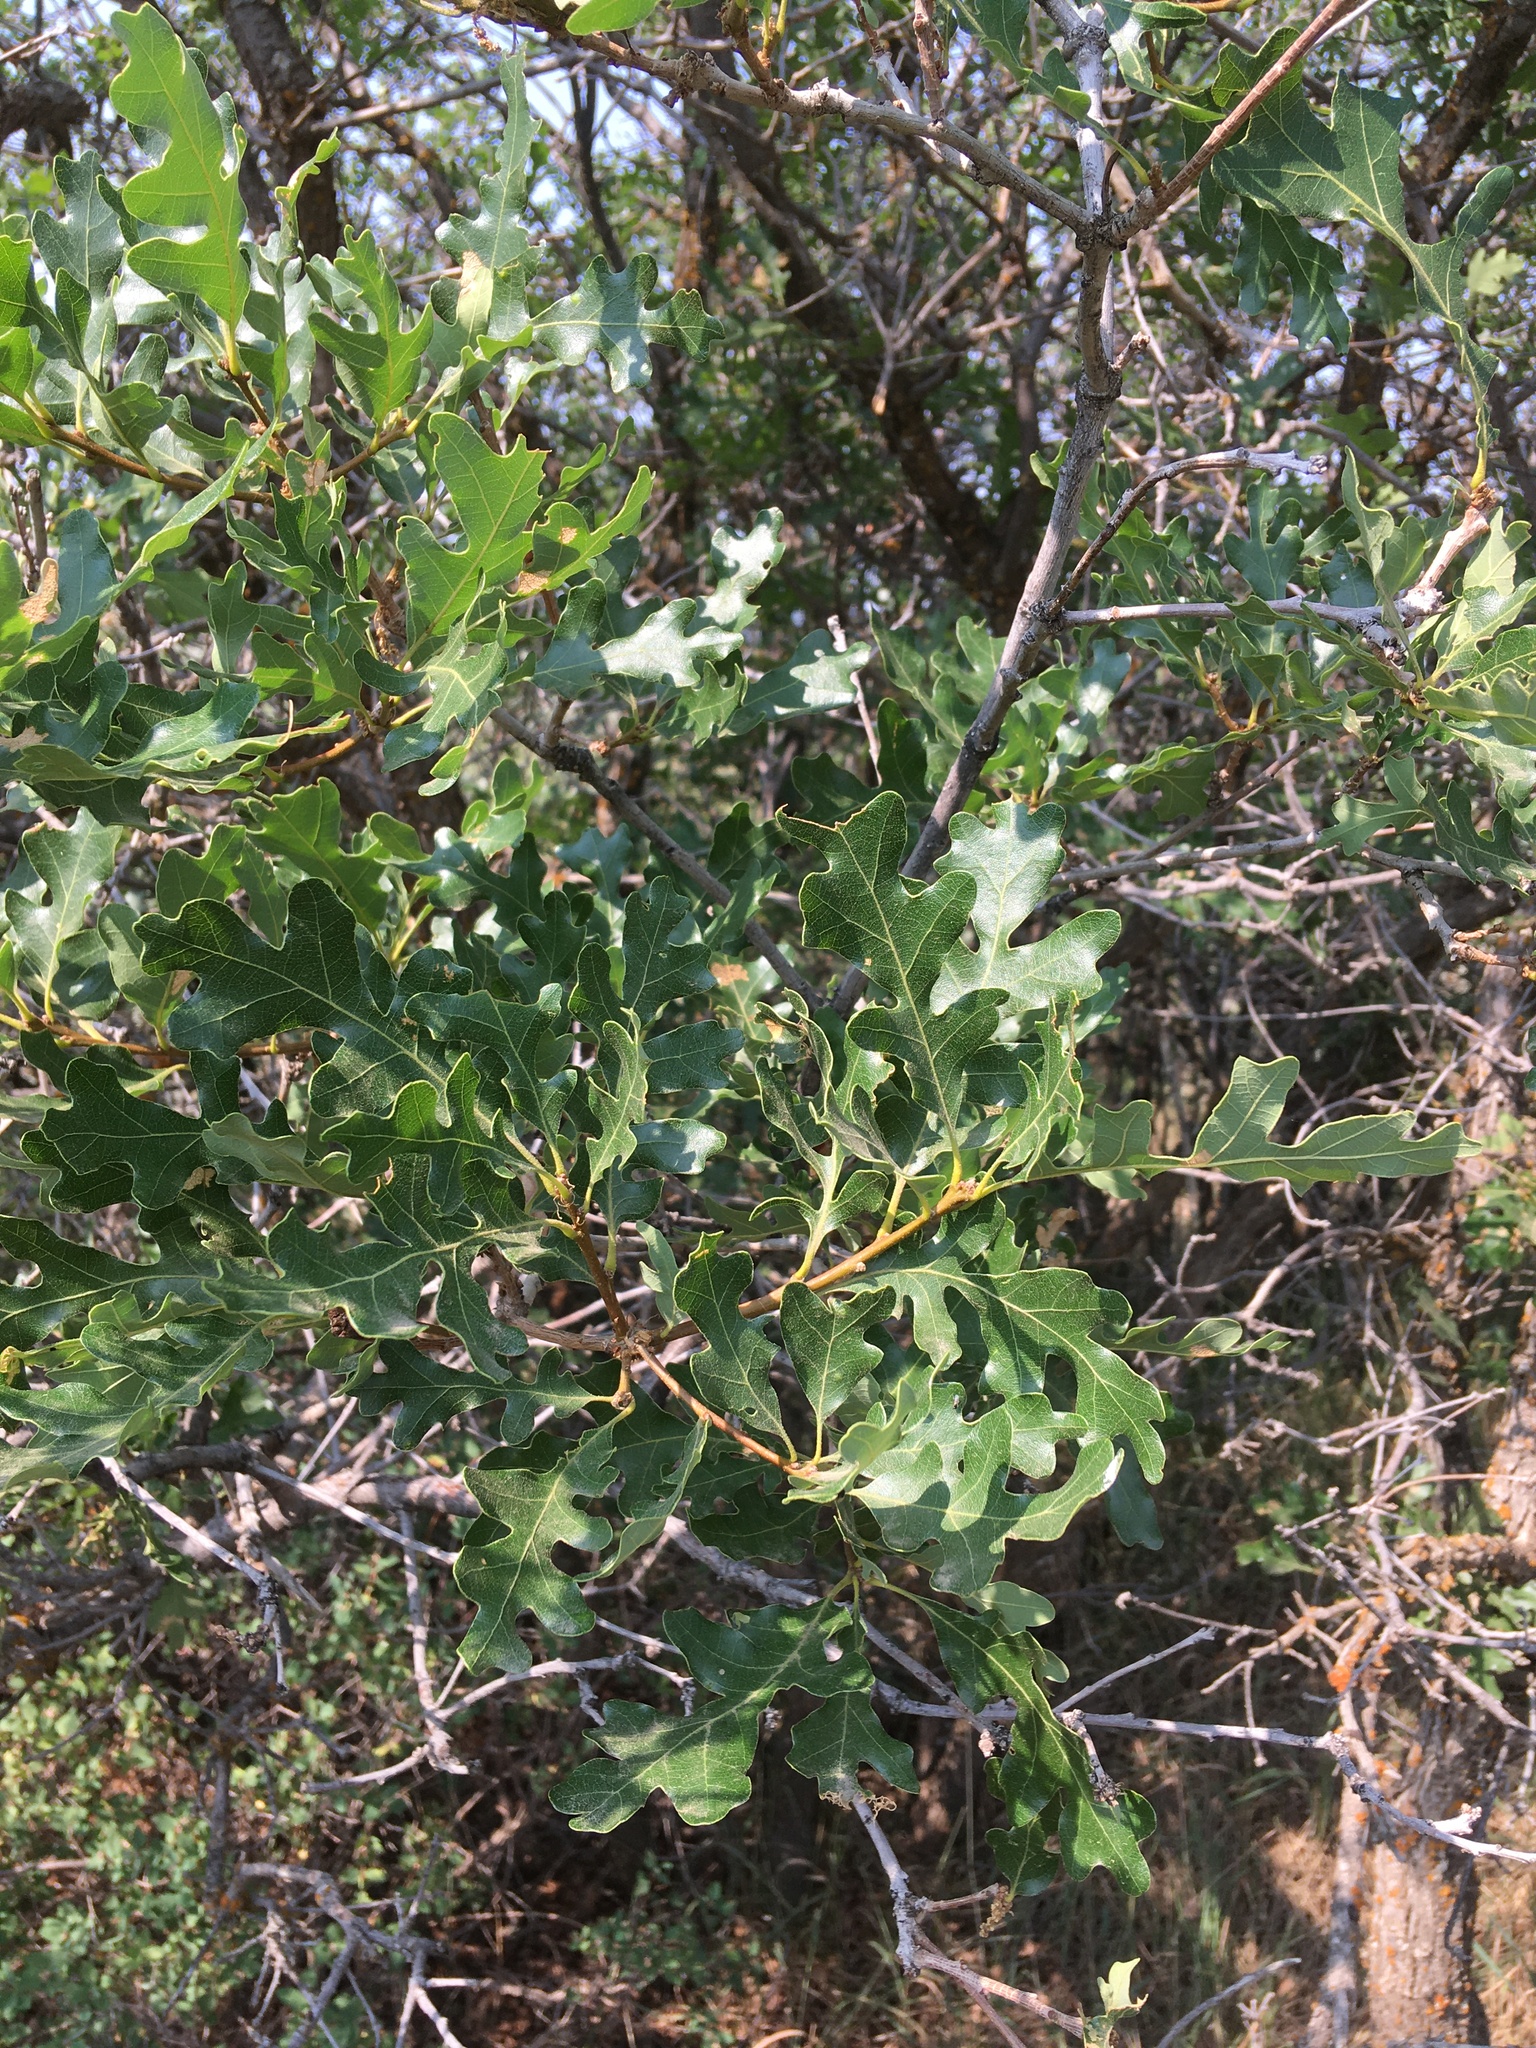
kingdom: Plantae
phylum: Tracheophyta
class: Magnoliopsida
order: Fagales
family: Fagaceae
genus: Quercus
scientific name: Quercus gambelii
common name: Gambel oak
